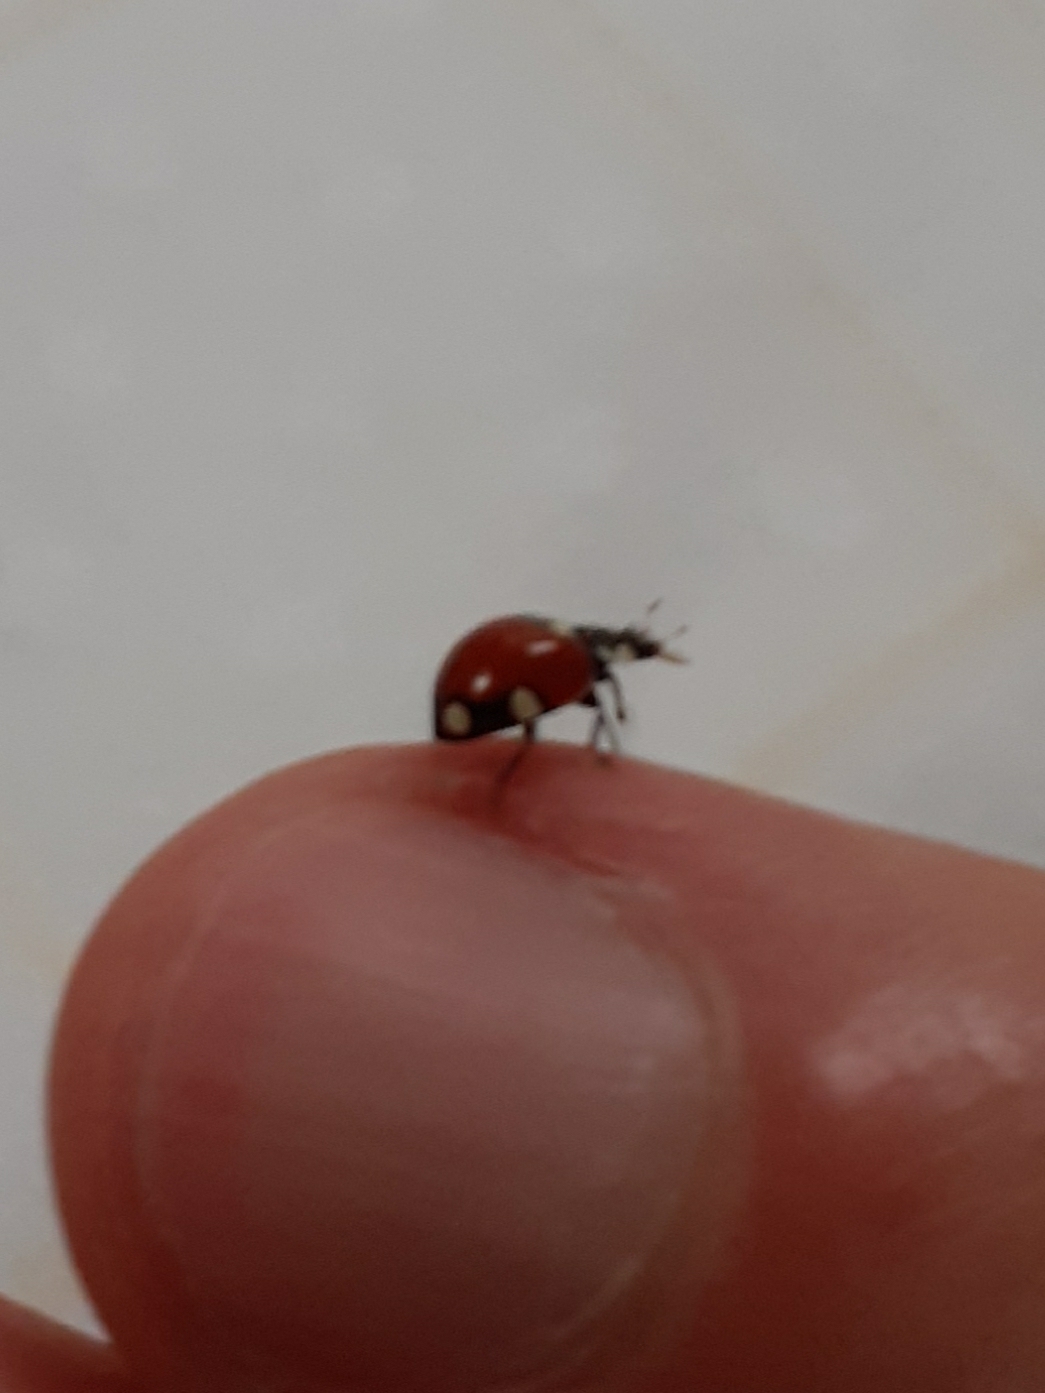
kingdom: Animalia
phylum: Arthropoda
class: Insecta
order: Coleoptera
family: Coccinellidae
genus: Cycloneda
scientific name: Cycloneda
